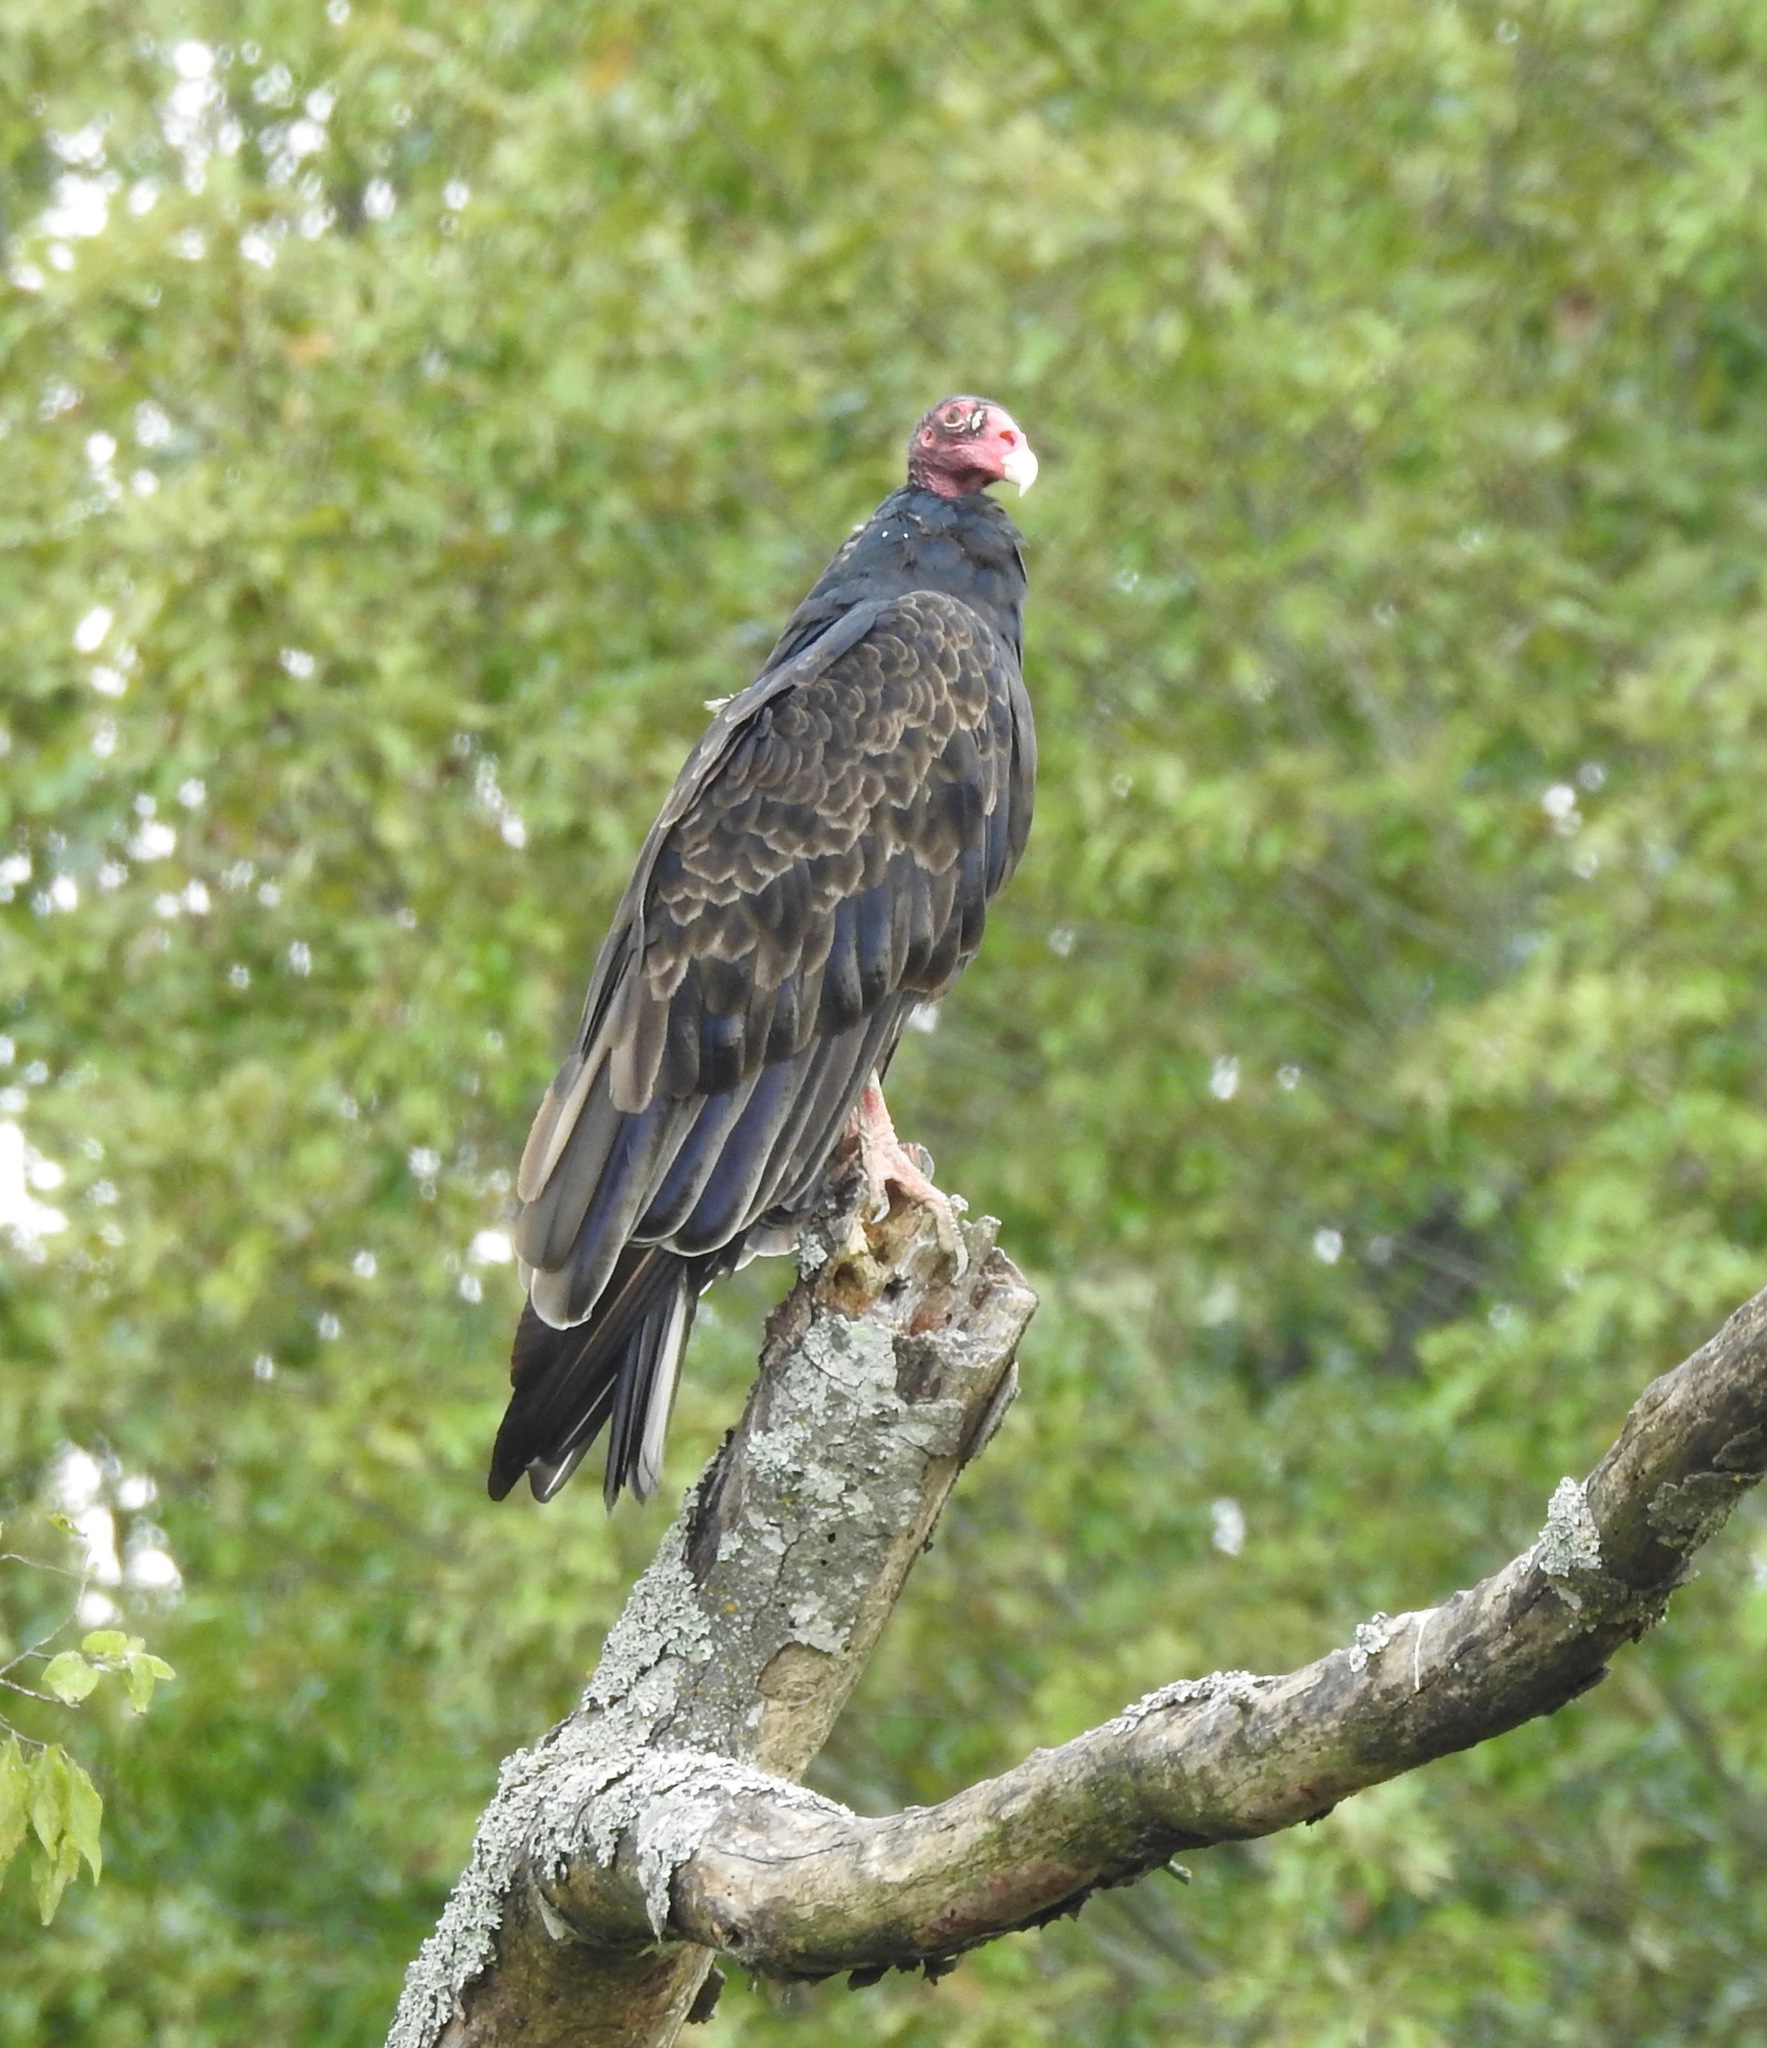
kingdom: Animalia
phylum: Chordata
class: Aves
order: Accipitriformes
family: Cathartidae
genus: Cathartes
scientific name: Cathartes aura
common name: Turkey vulture
